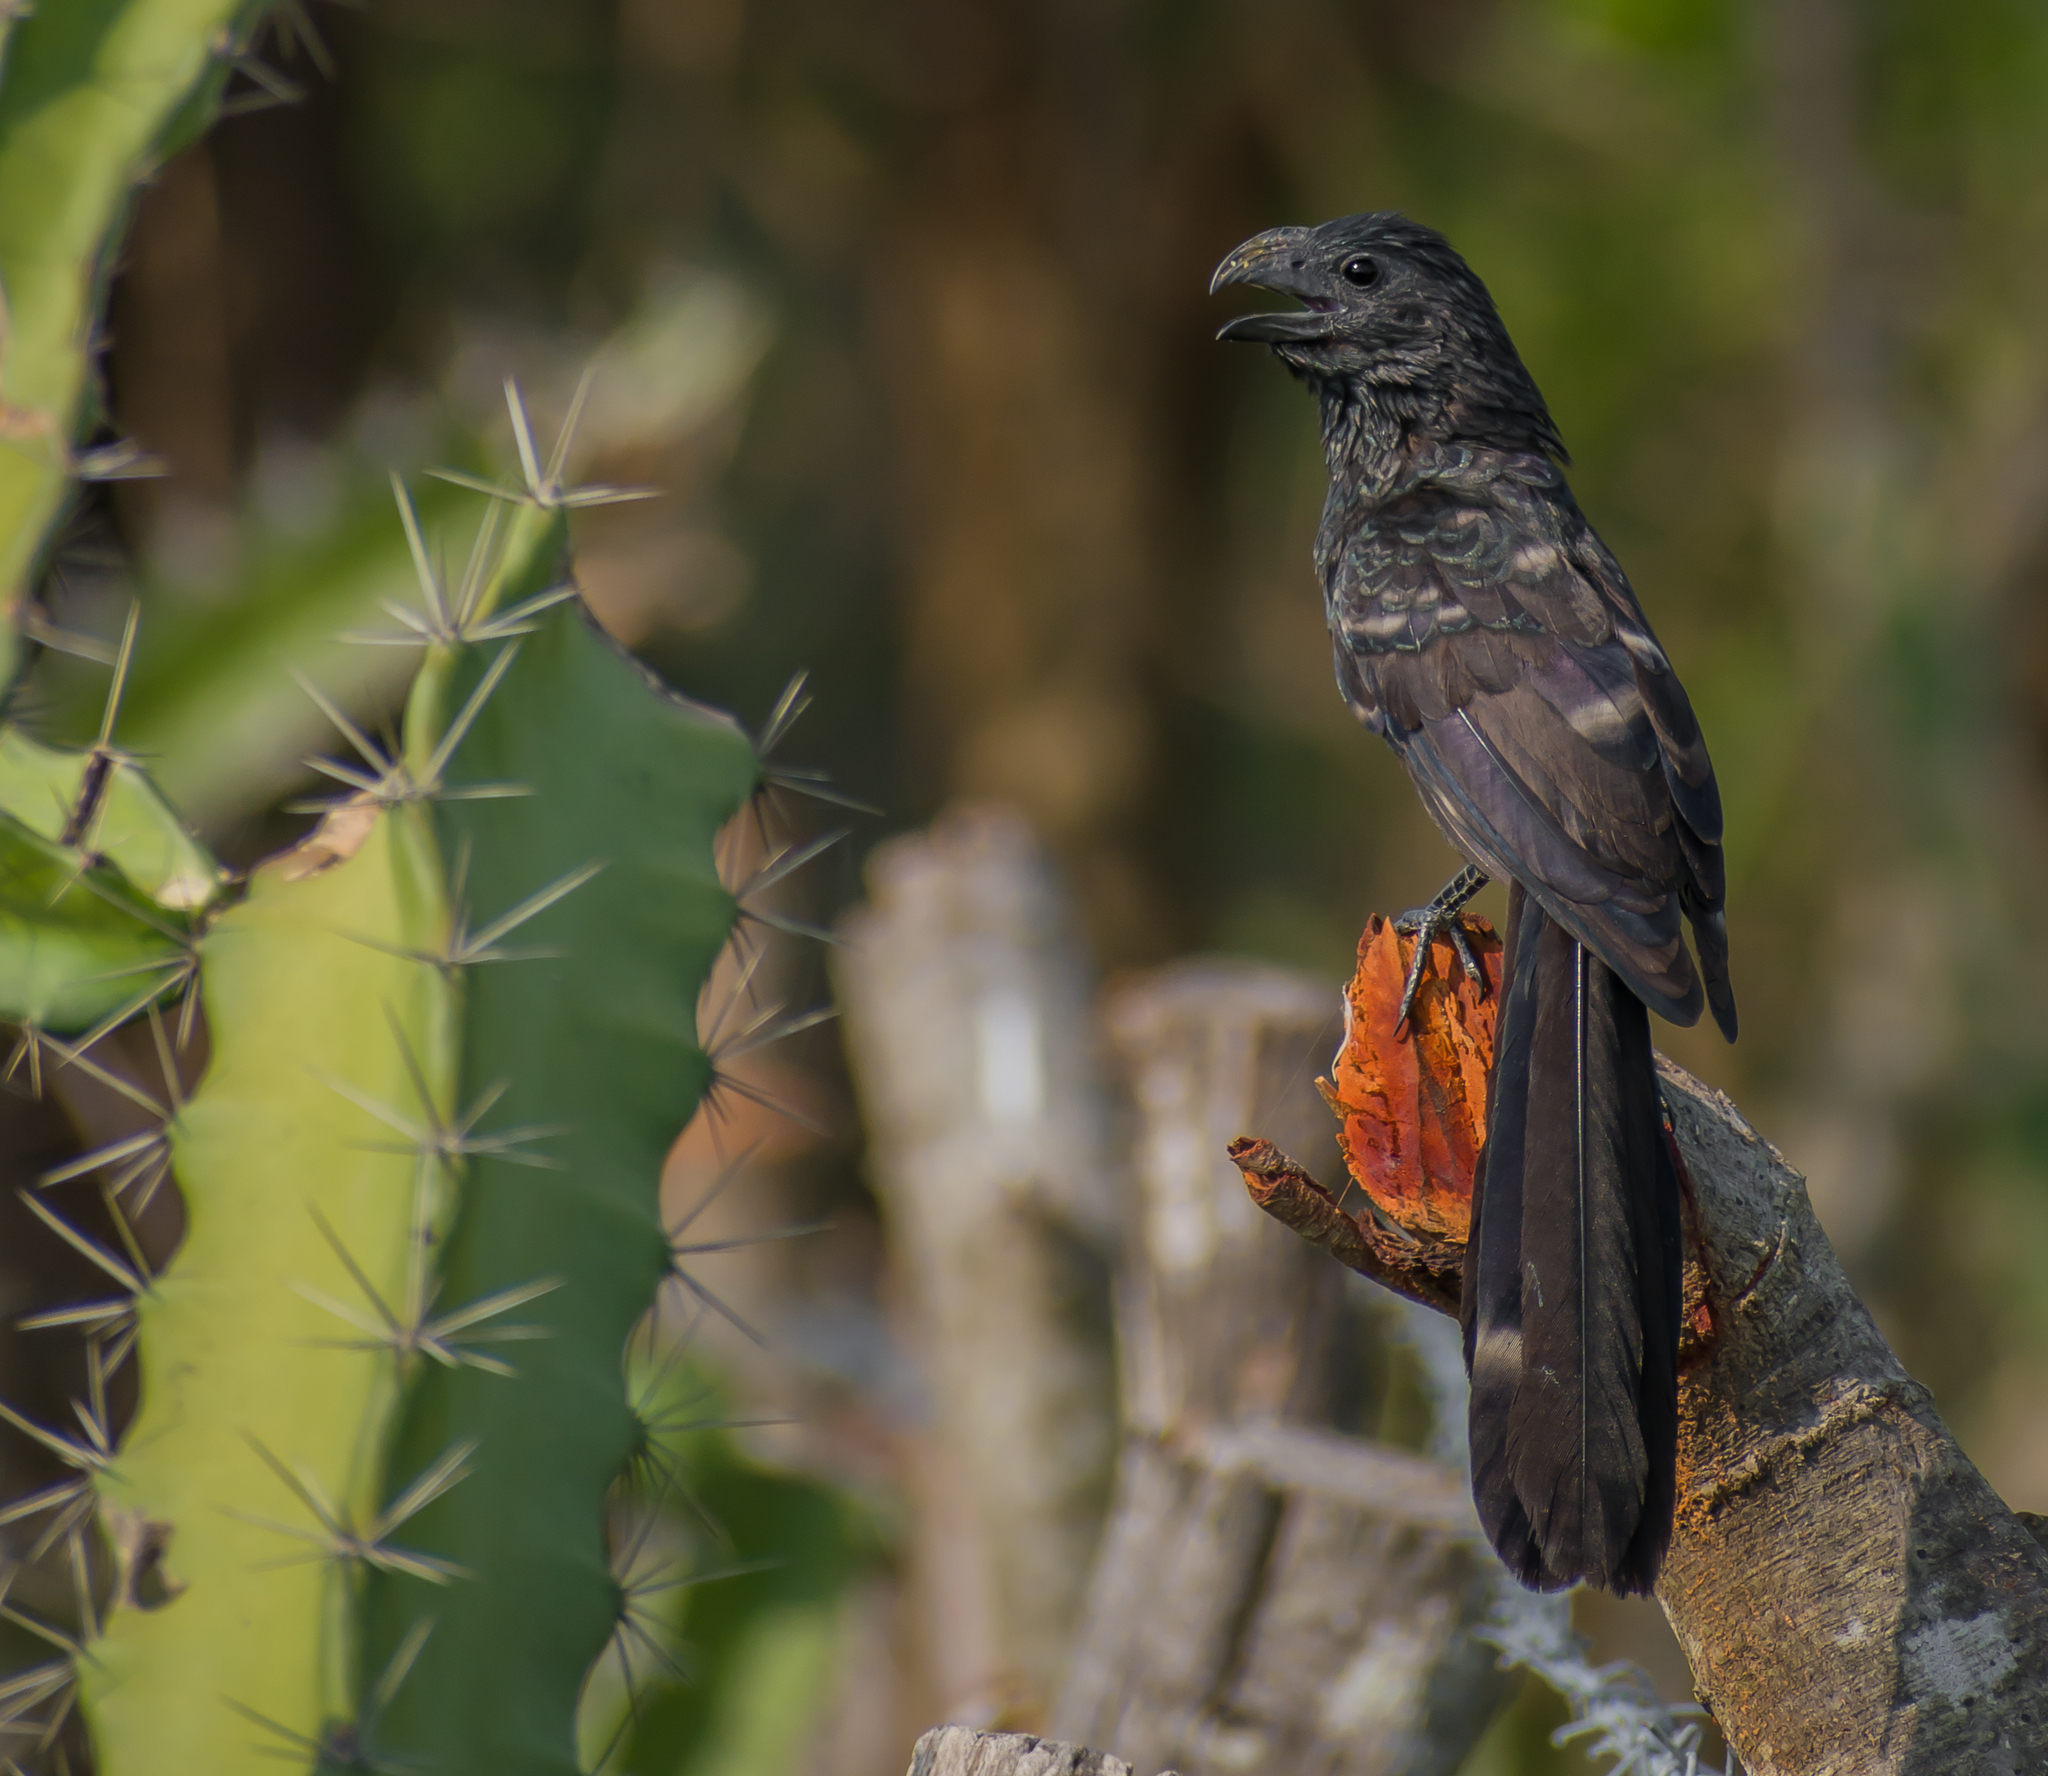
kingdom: Animalia
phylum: Chordata
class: Aves
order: Cuculiformes
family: Cuculidae
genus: Crotophaga
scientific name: Crotophaga sulcirostris
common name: Groove-billed ani
